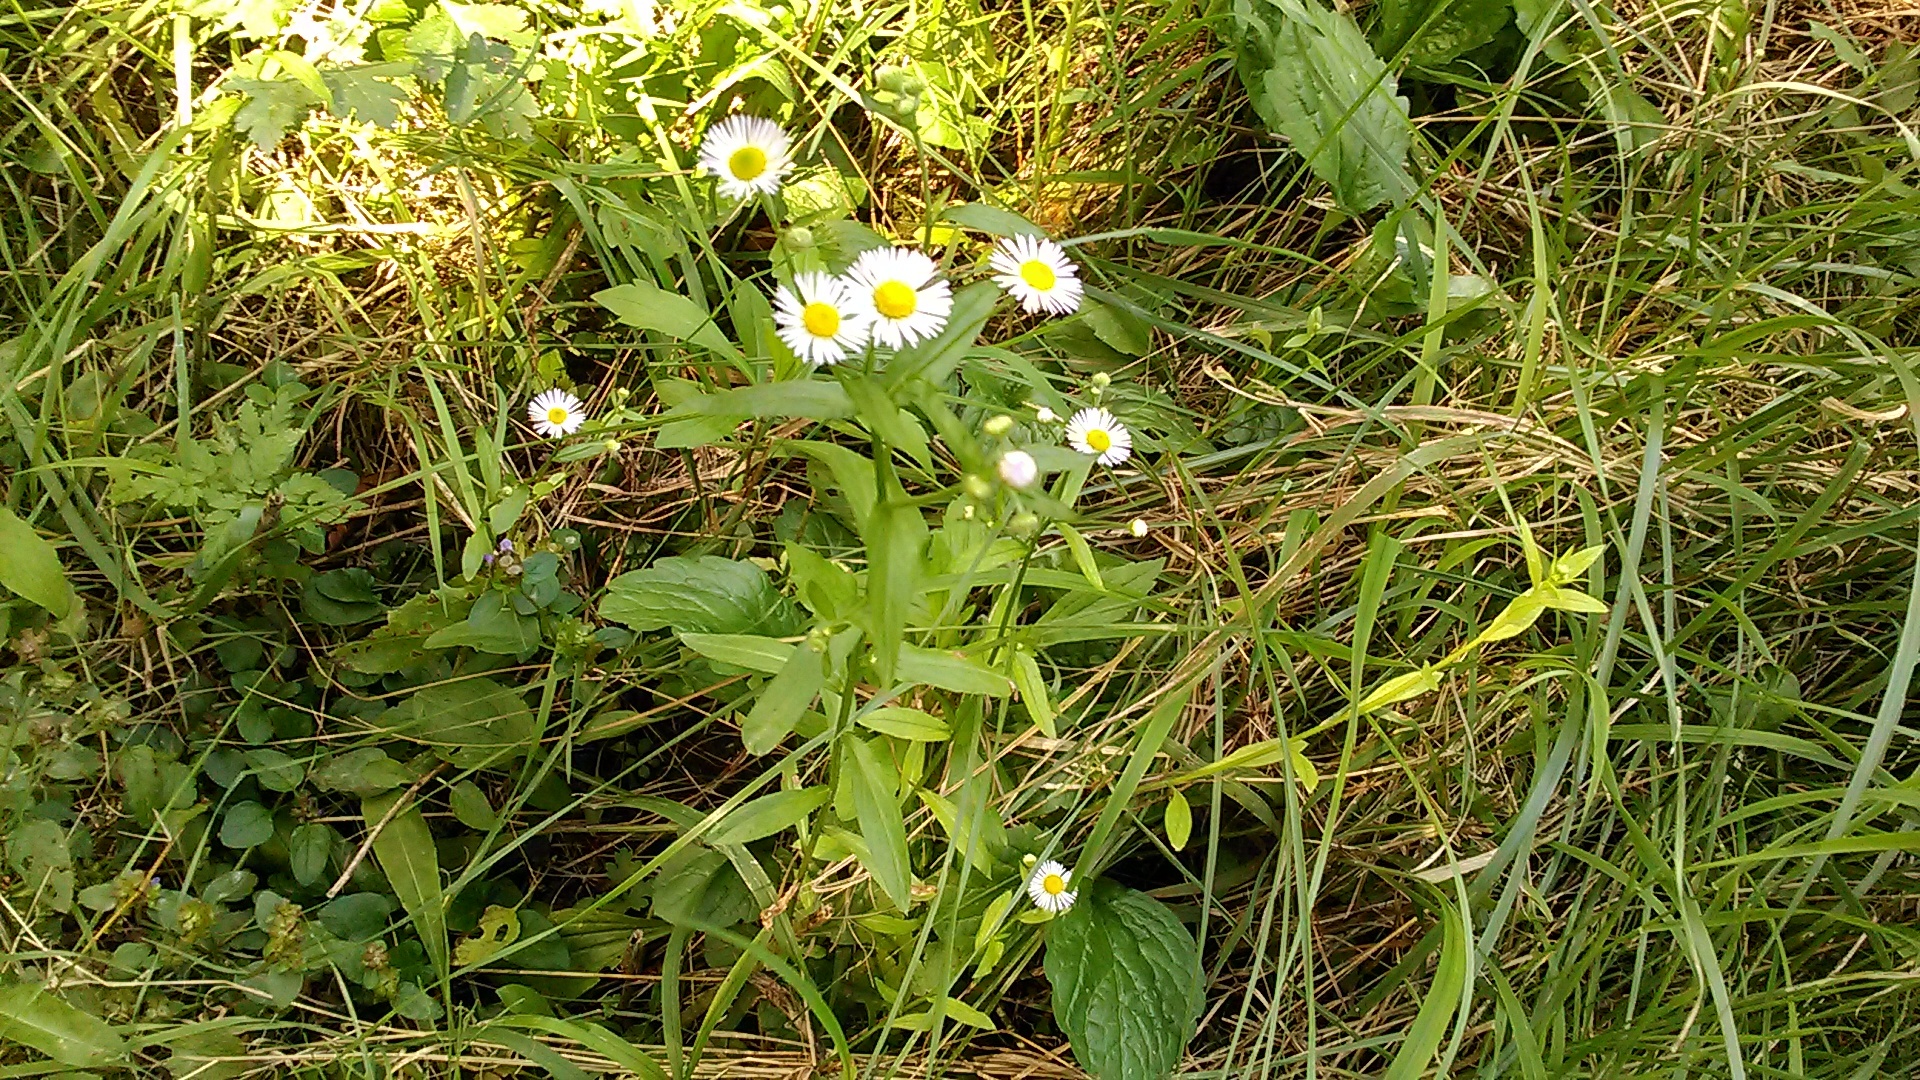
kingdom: Plantae
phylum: Tracheophyta
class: Magnoliopsida
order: Asterales
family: Asteraceae
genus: Erigeron
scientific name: Erigeron annuus
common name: Tall fleabane
